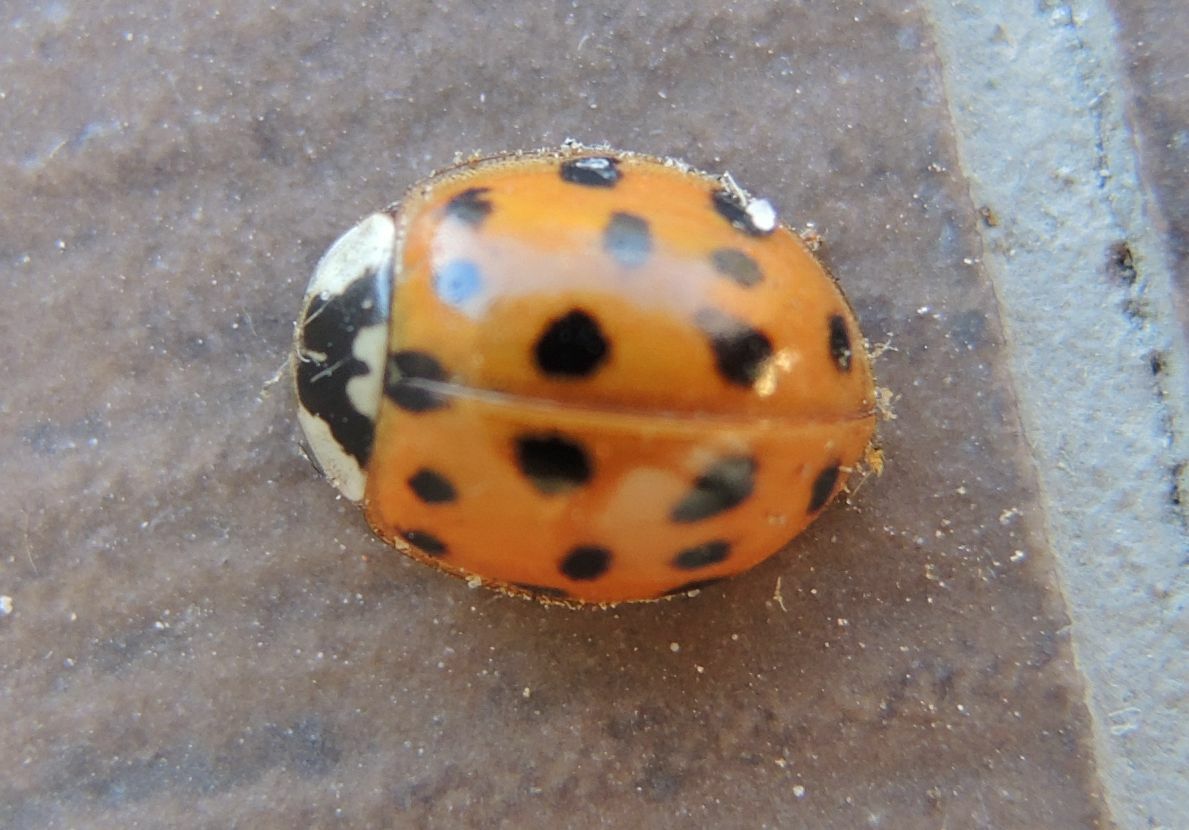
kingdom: Animalia
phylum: Arthropoda
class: Insecta
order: Coleoptera
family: Coccinellidae
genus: Harmonia
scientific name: Harmonia axyridis
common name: Harlequin ladybird
